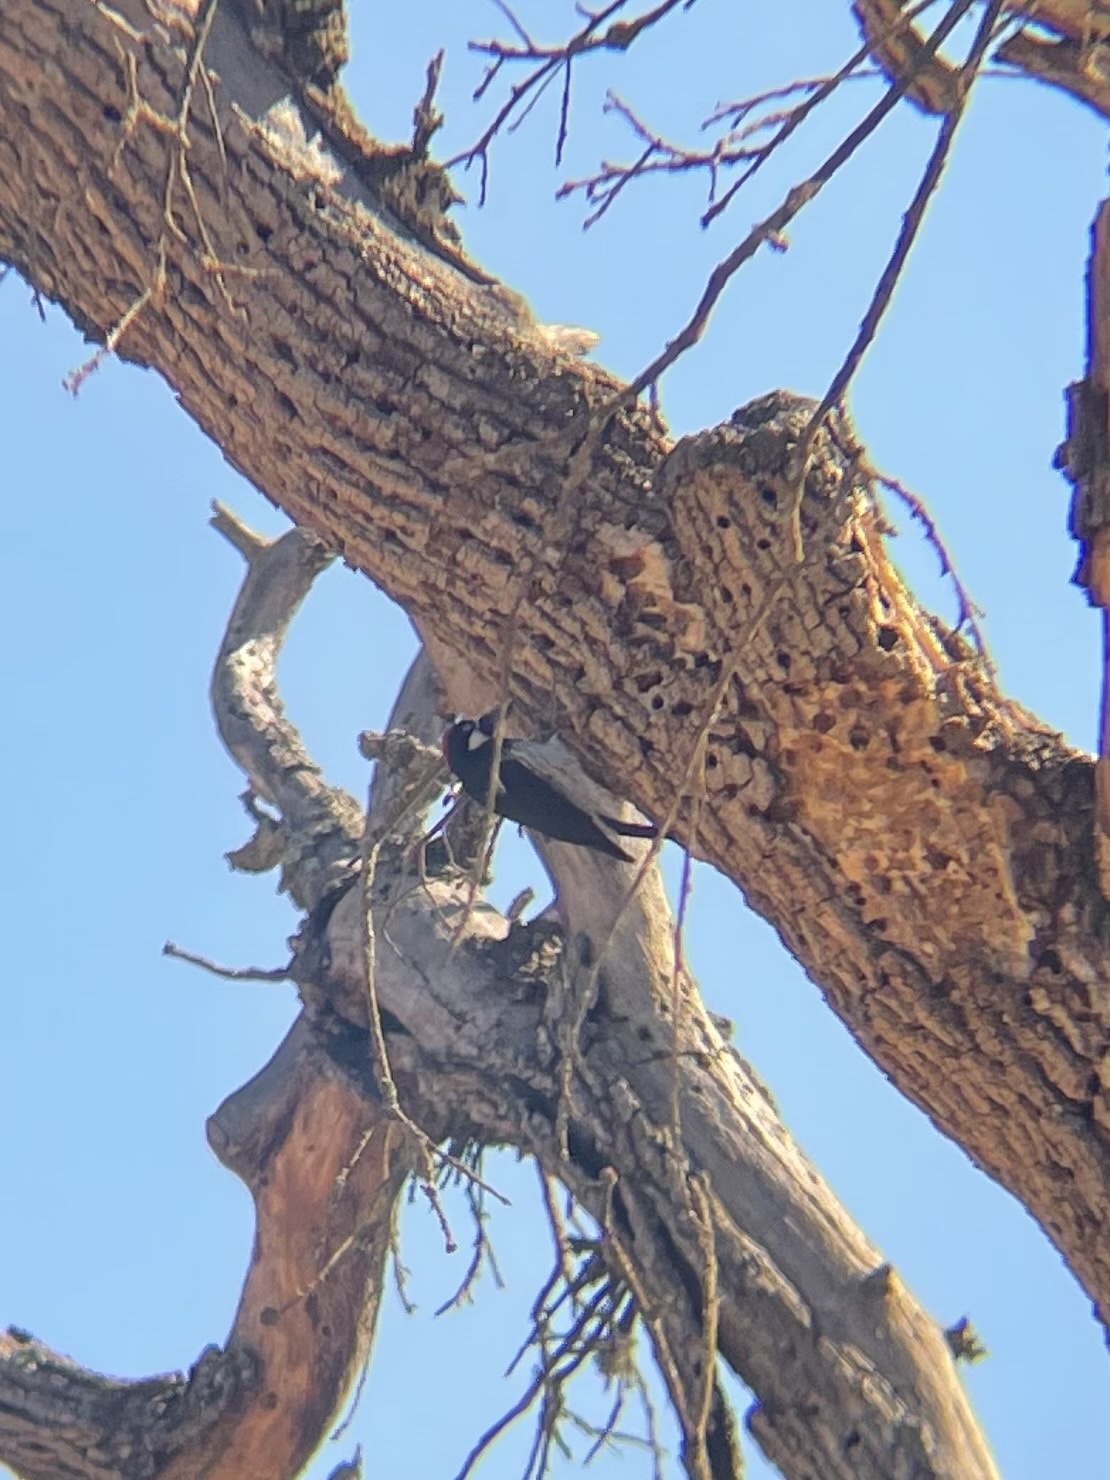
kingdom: Animalia
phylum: Chordata
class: Aves
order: Piciformes
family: Picidae
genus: Melanerpes
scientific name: Melanerpes formicivorus
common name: Acorn woodpecker
